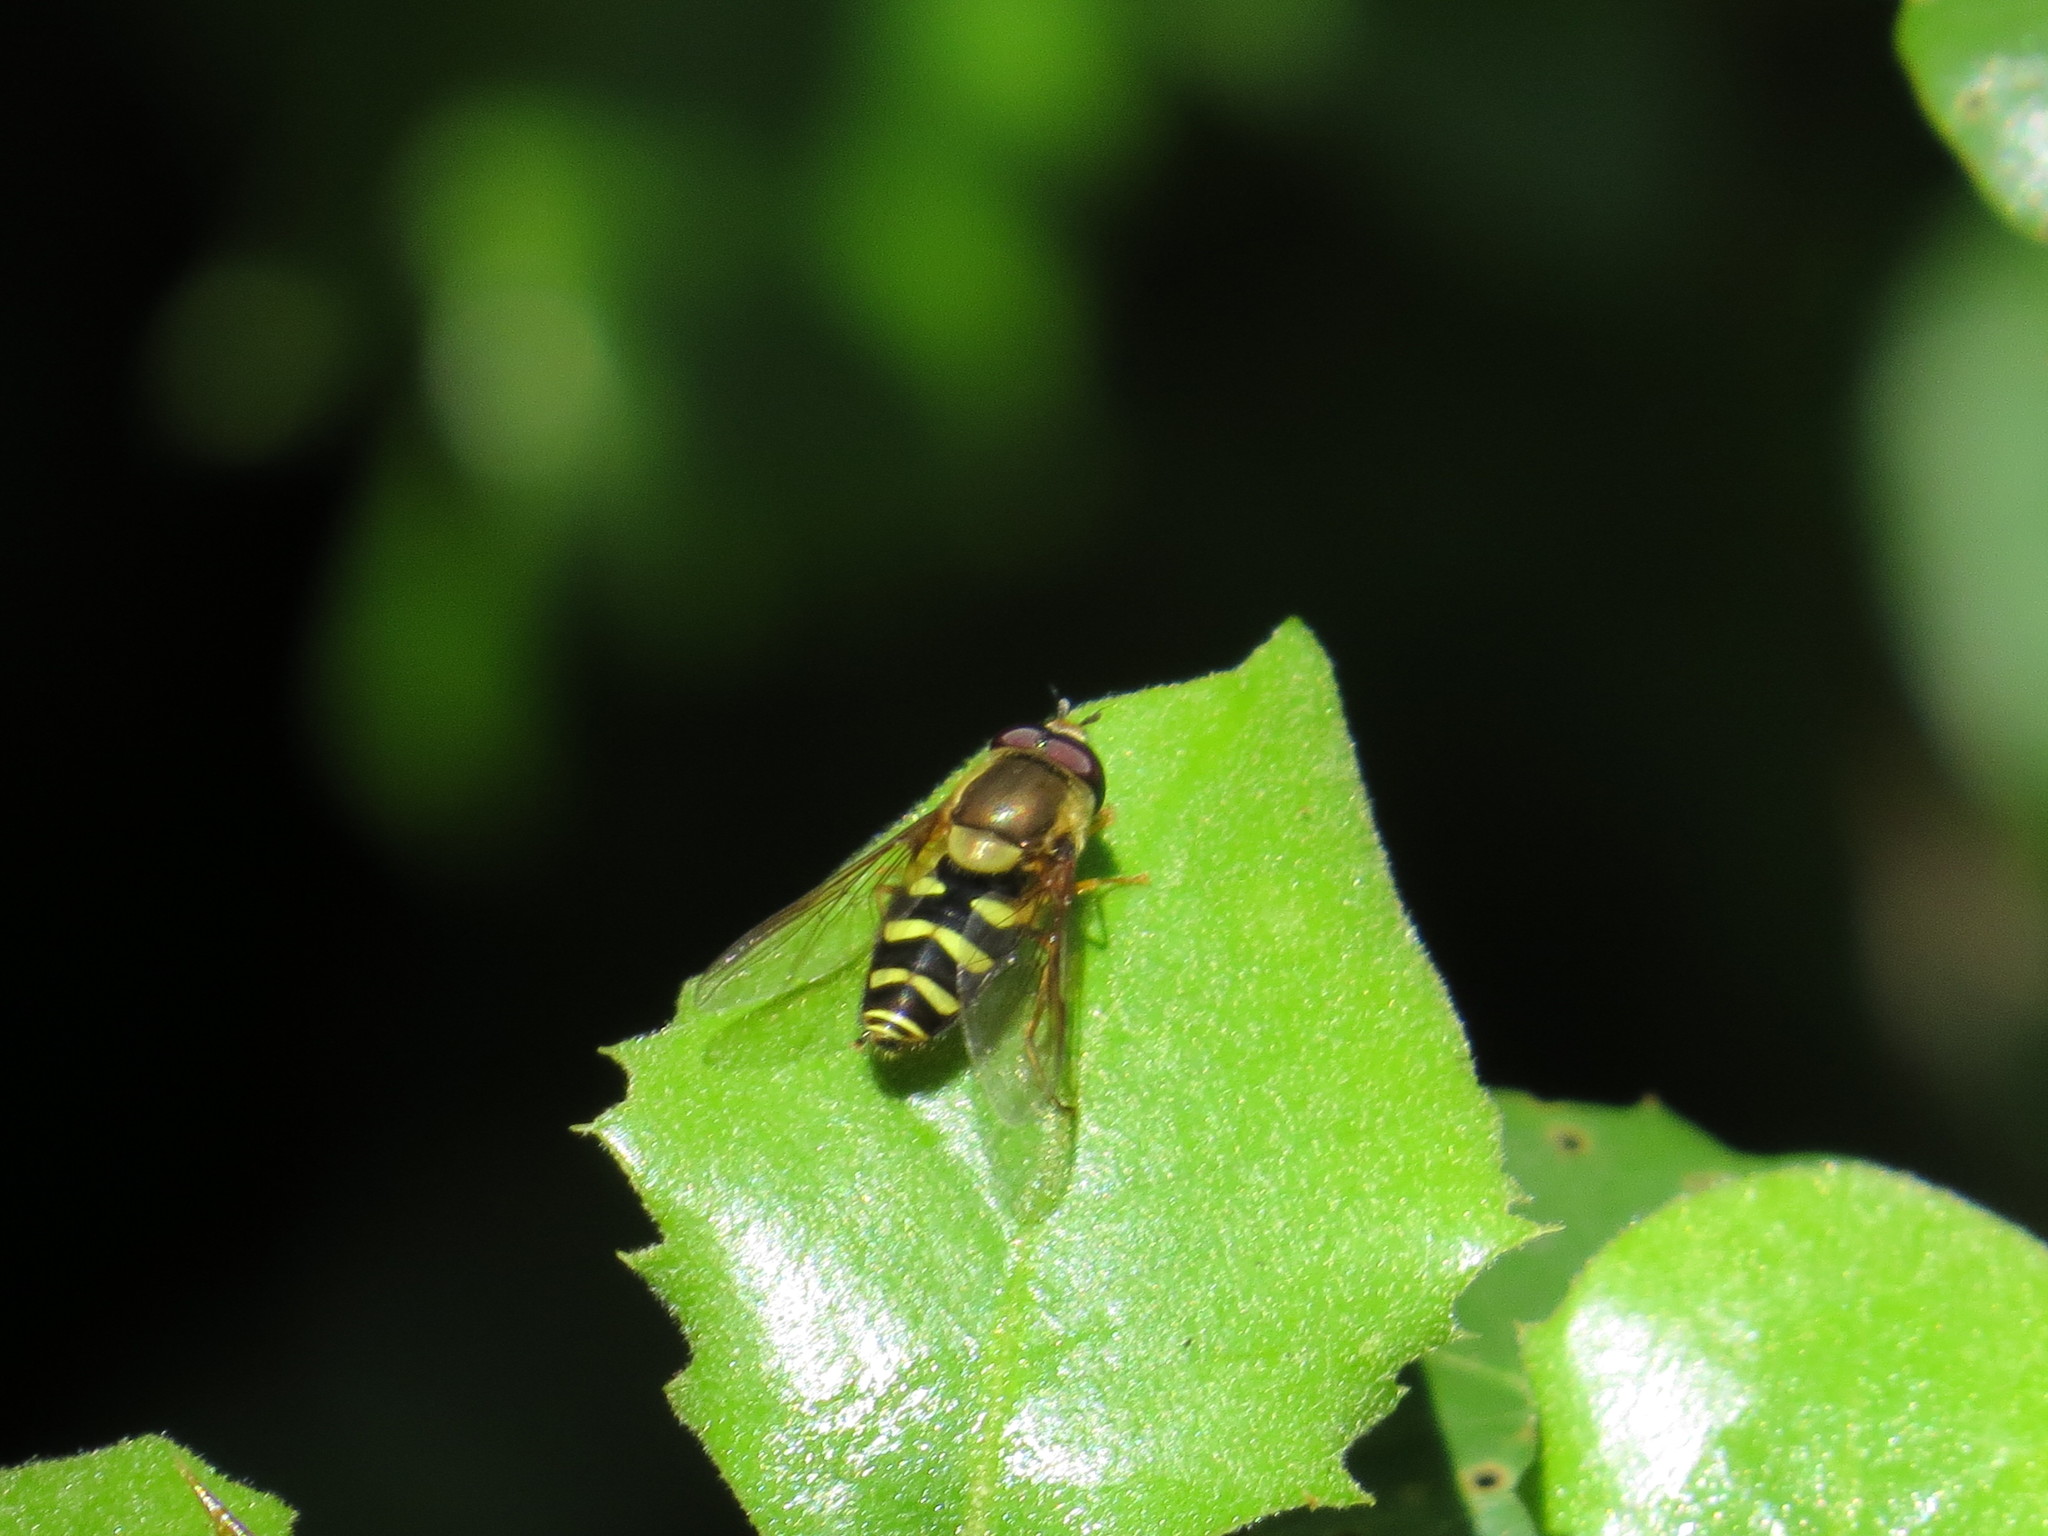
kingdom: Animalia
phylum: Arthropoda
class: Insecta
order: Diptera
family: Syrphidae
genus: Syrphus
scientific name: Syrphus opinator
